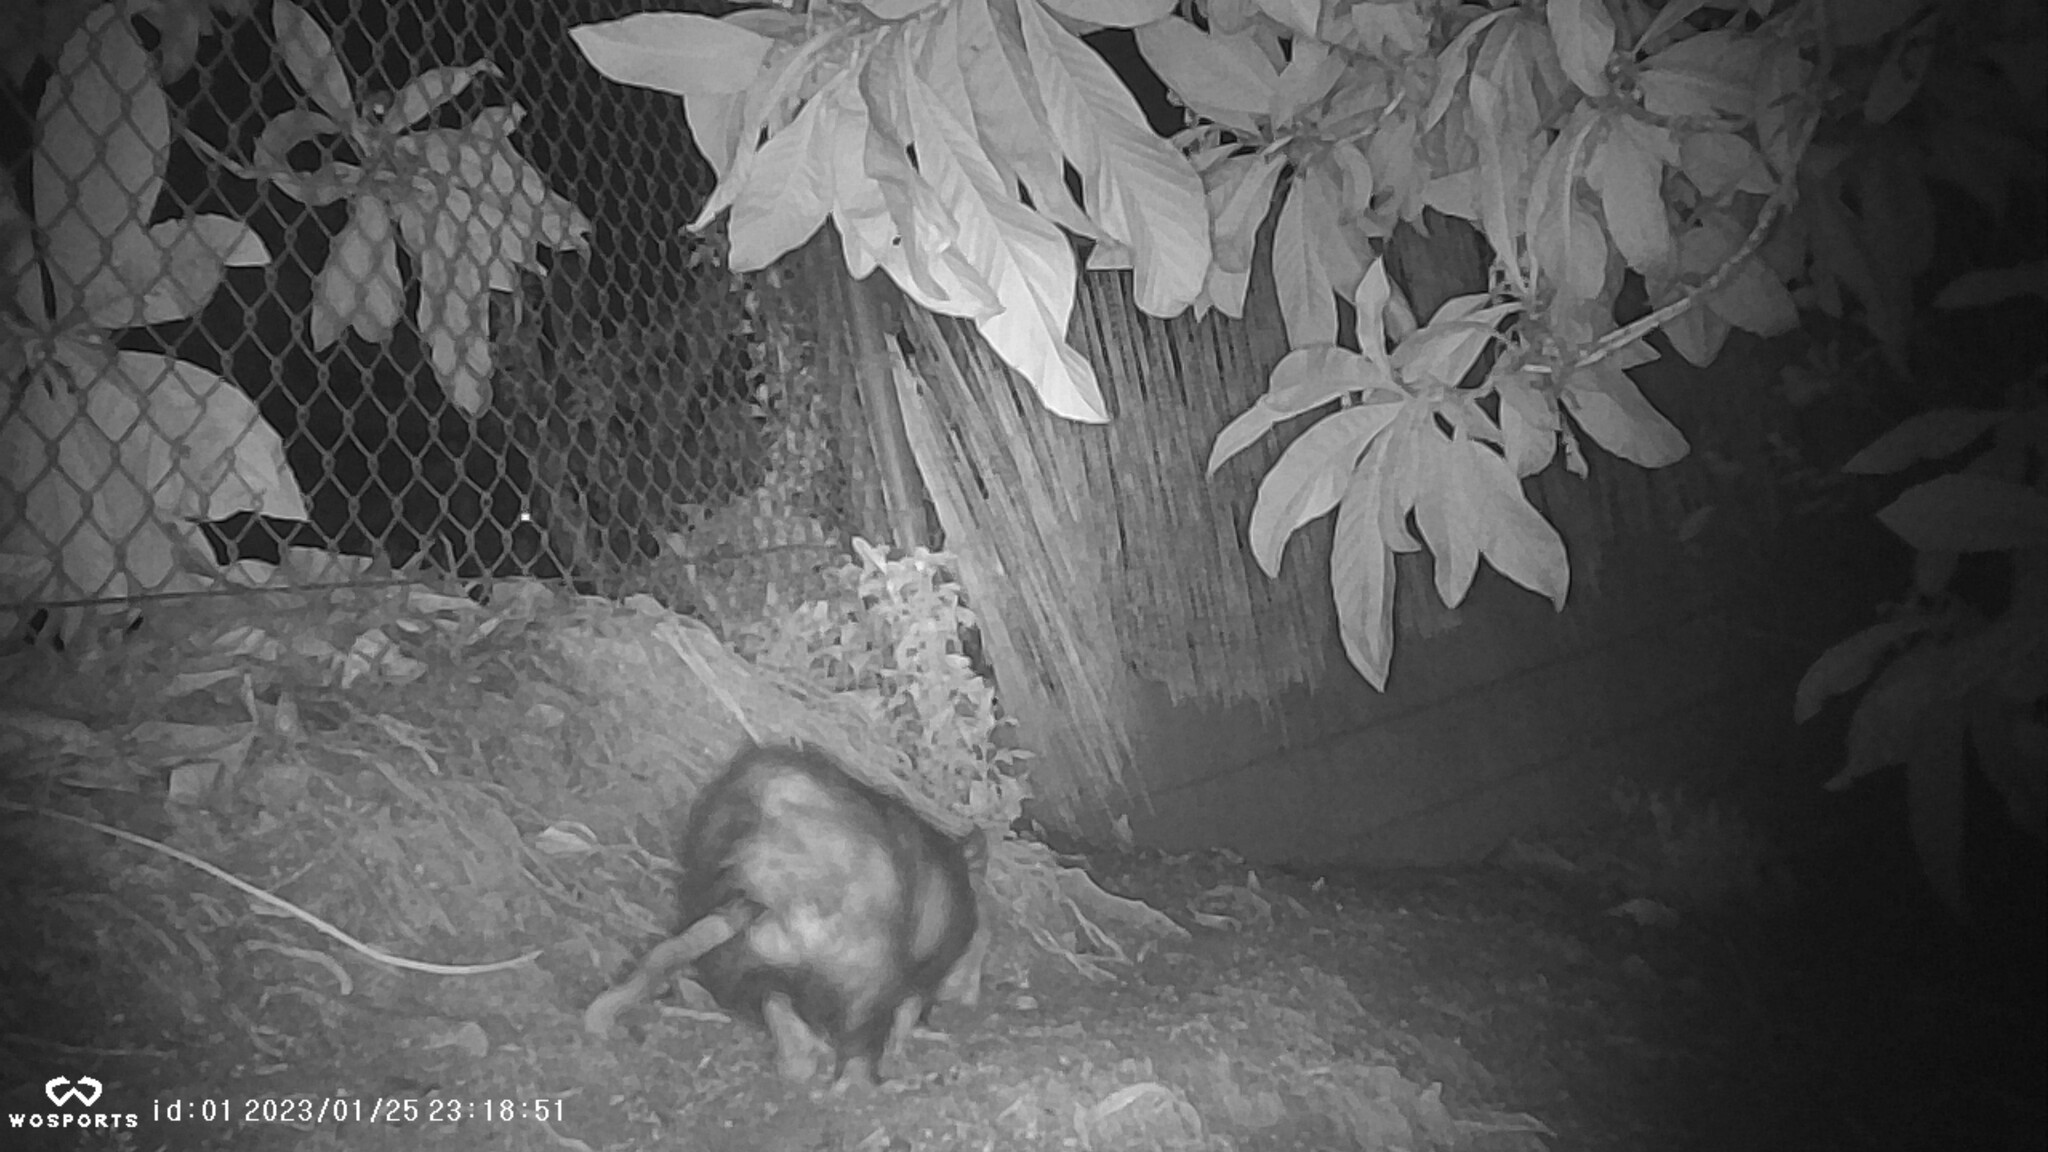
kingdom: Animalia
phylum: Chordata
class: Mammalia
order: Didelphimorphia
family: Didelphidae
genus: Didelphis
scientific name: Didelphis virginiana
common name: Virginia opossum
